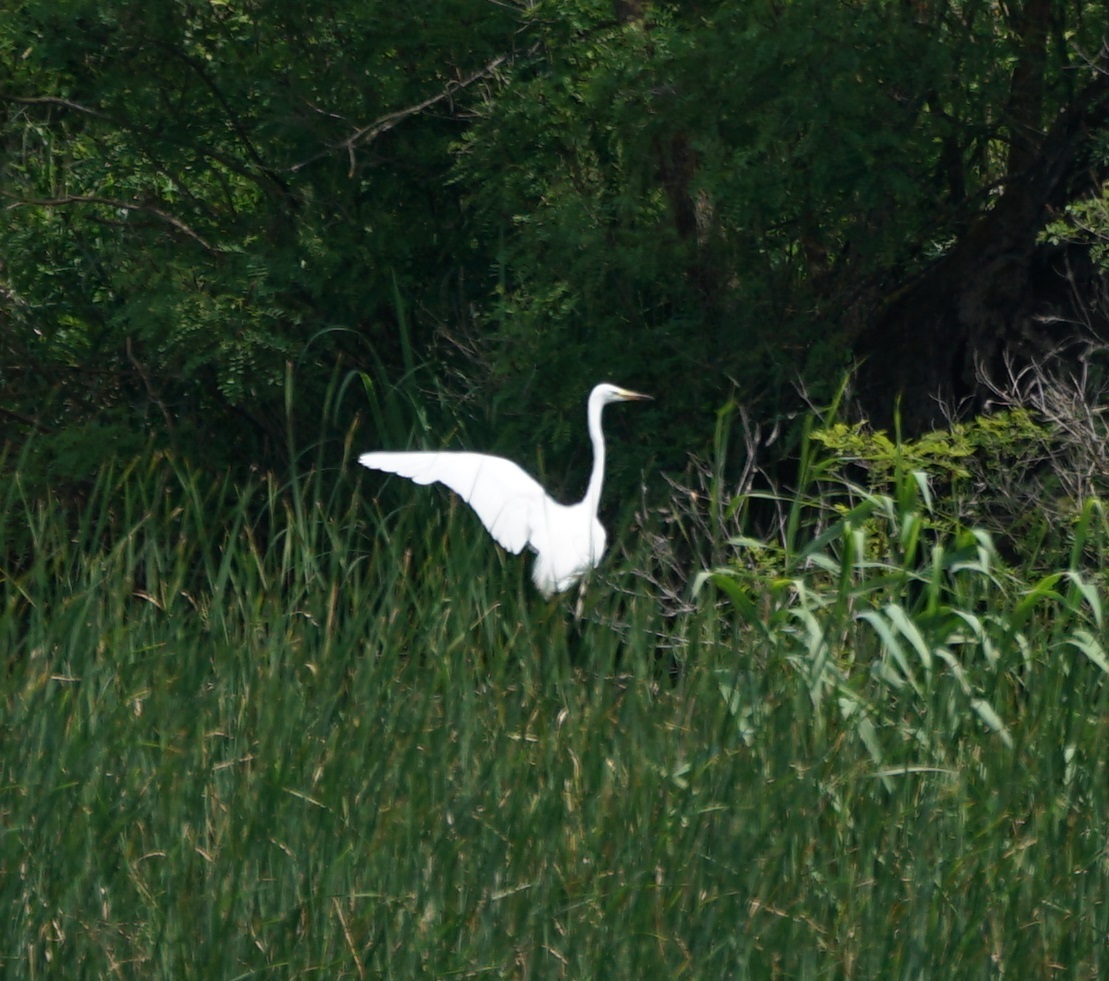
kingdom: Animalia
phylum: Chordata
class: Aves
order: Pelecaniformes
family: Ardeidae
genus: Ardea
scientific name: Ardea alba
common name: Great egret
